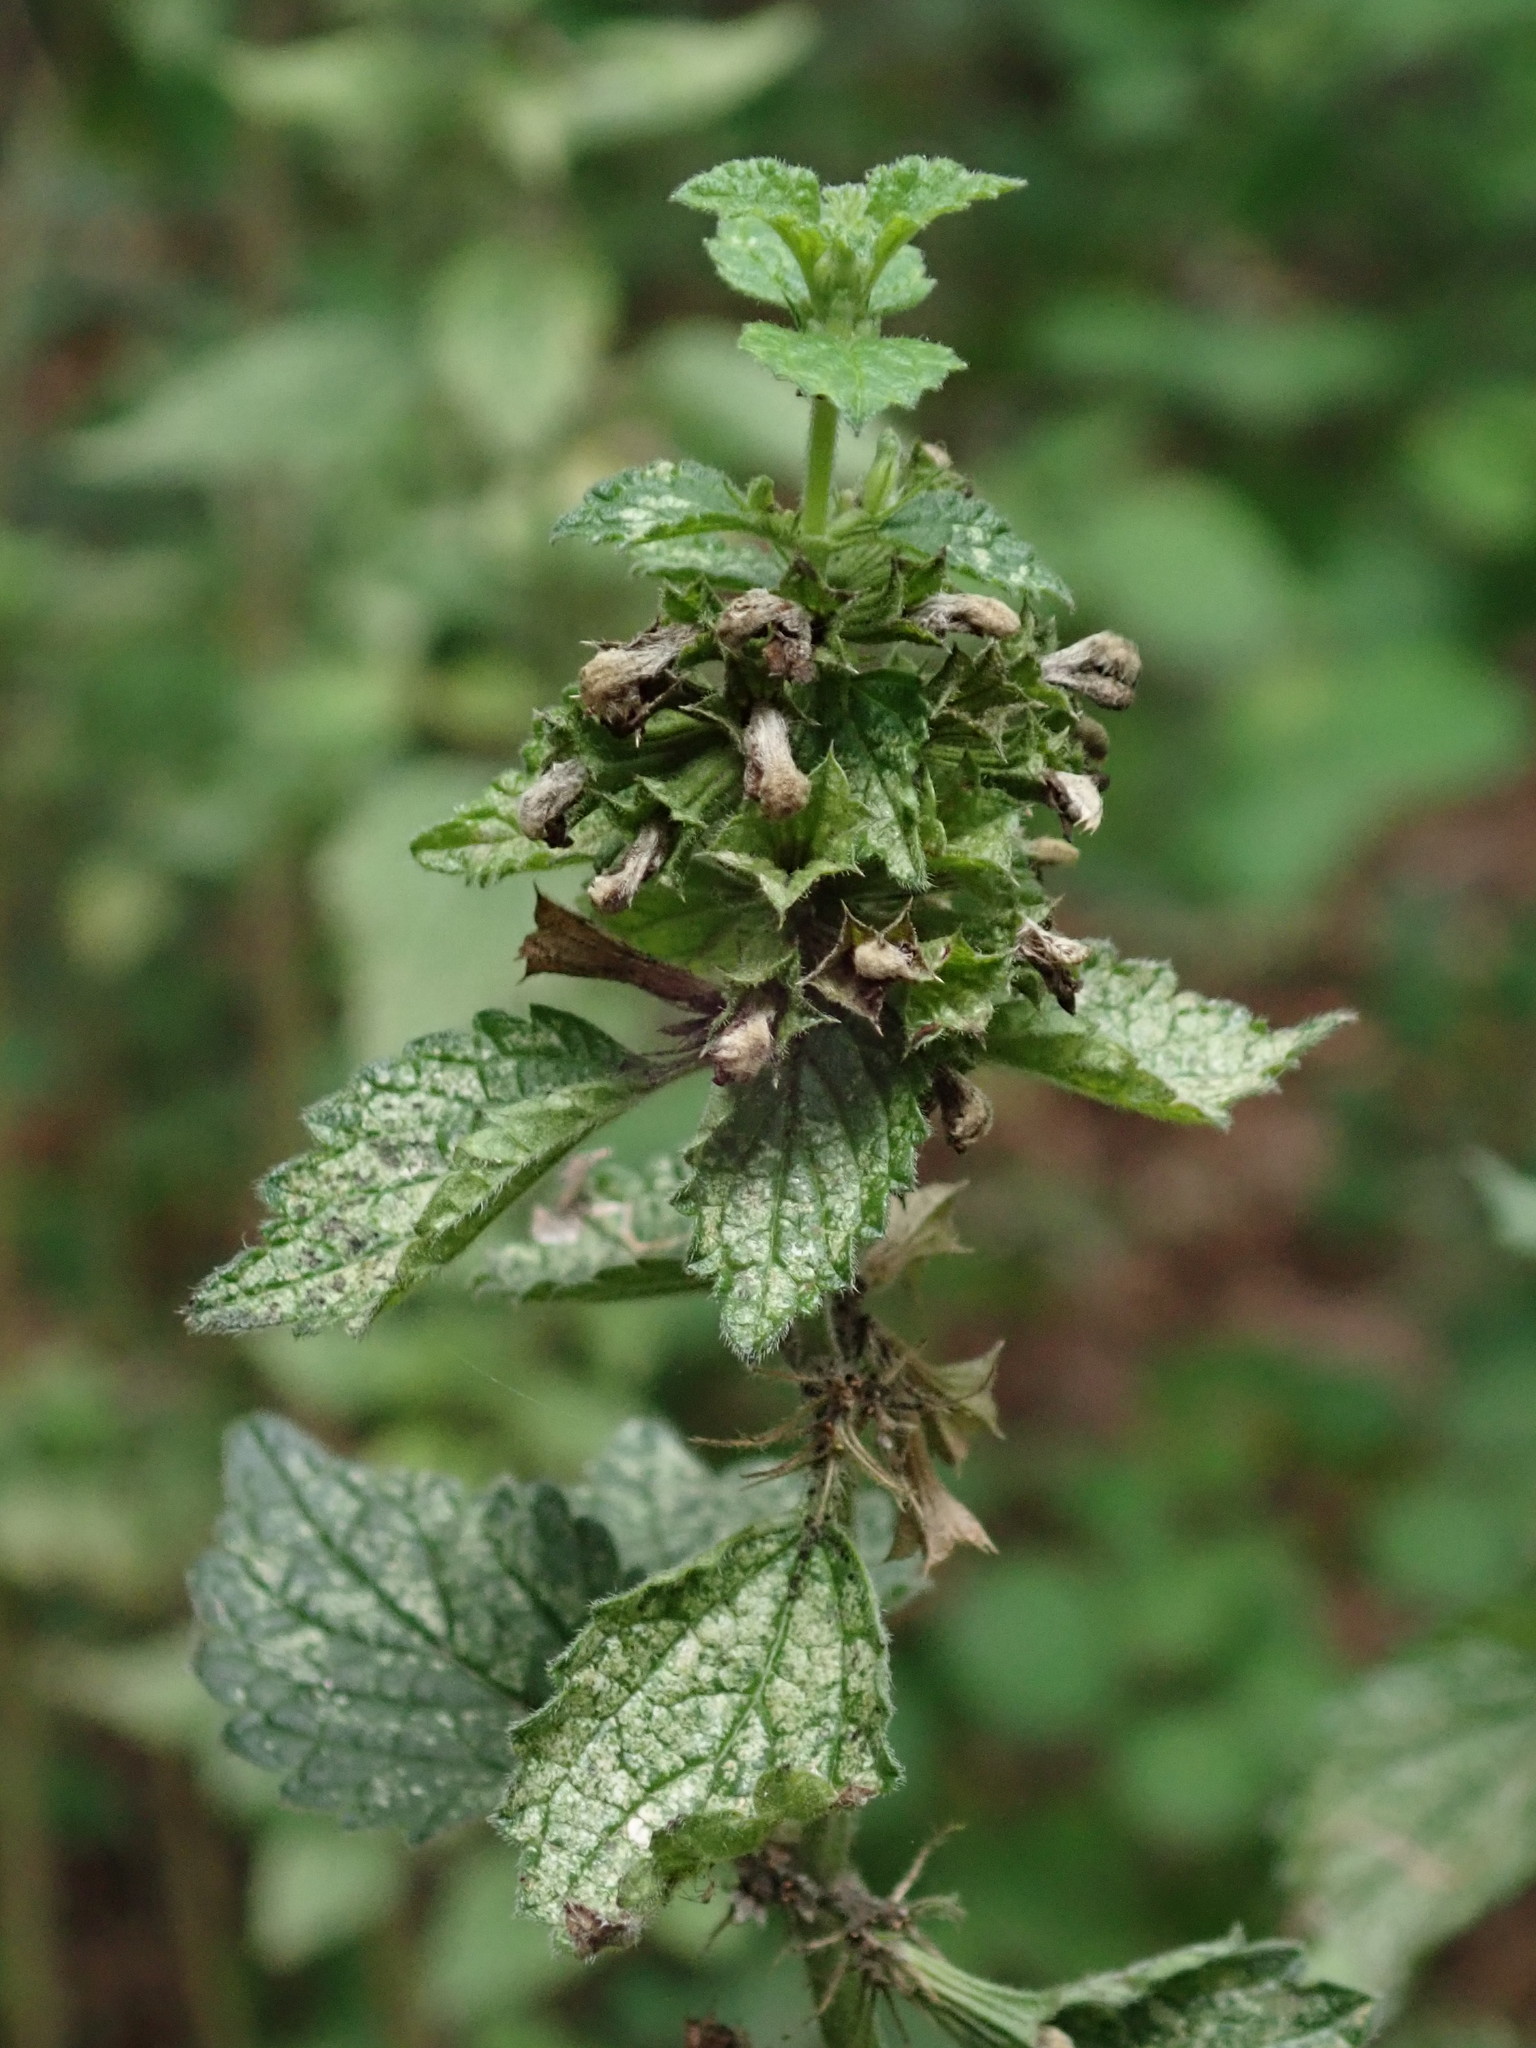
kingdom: Plantae
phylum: Tracheophyta
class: Magnoliopsida
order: Lamiales
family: Lamiaceae
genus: Ballota
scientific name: Ballota nigra
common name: Black horehound
